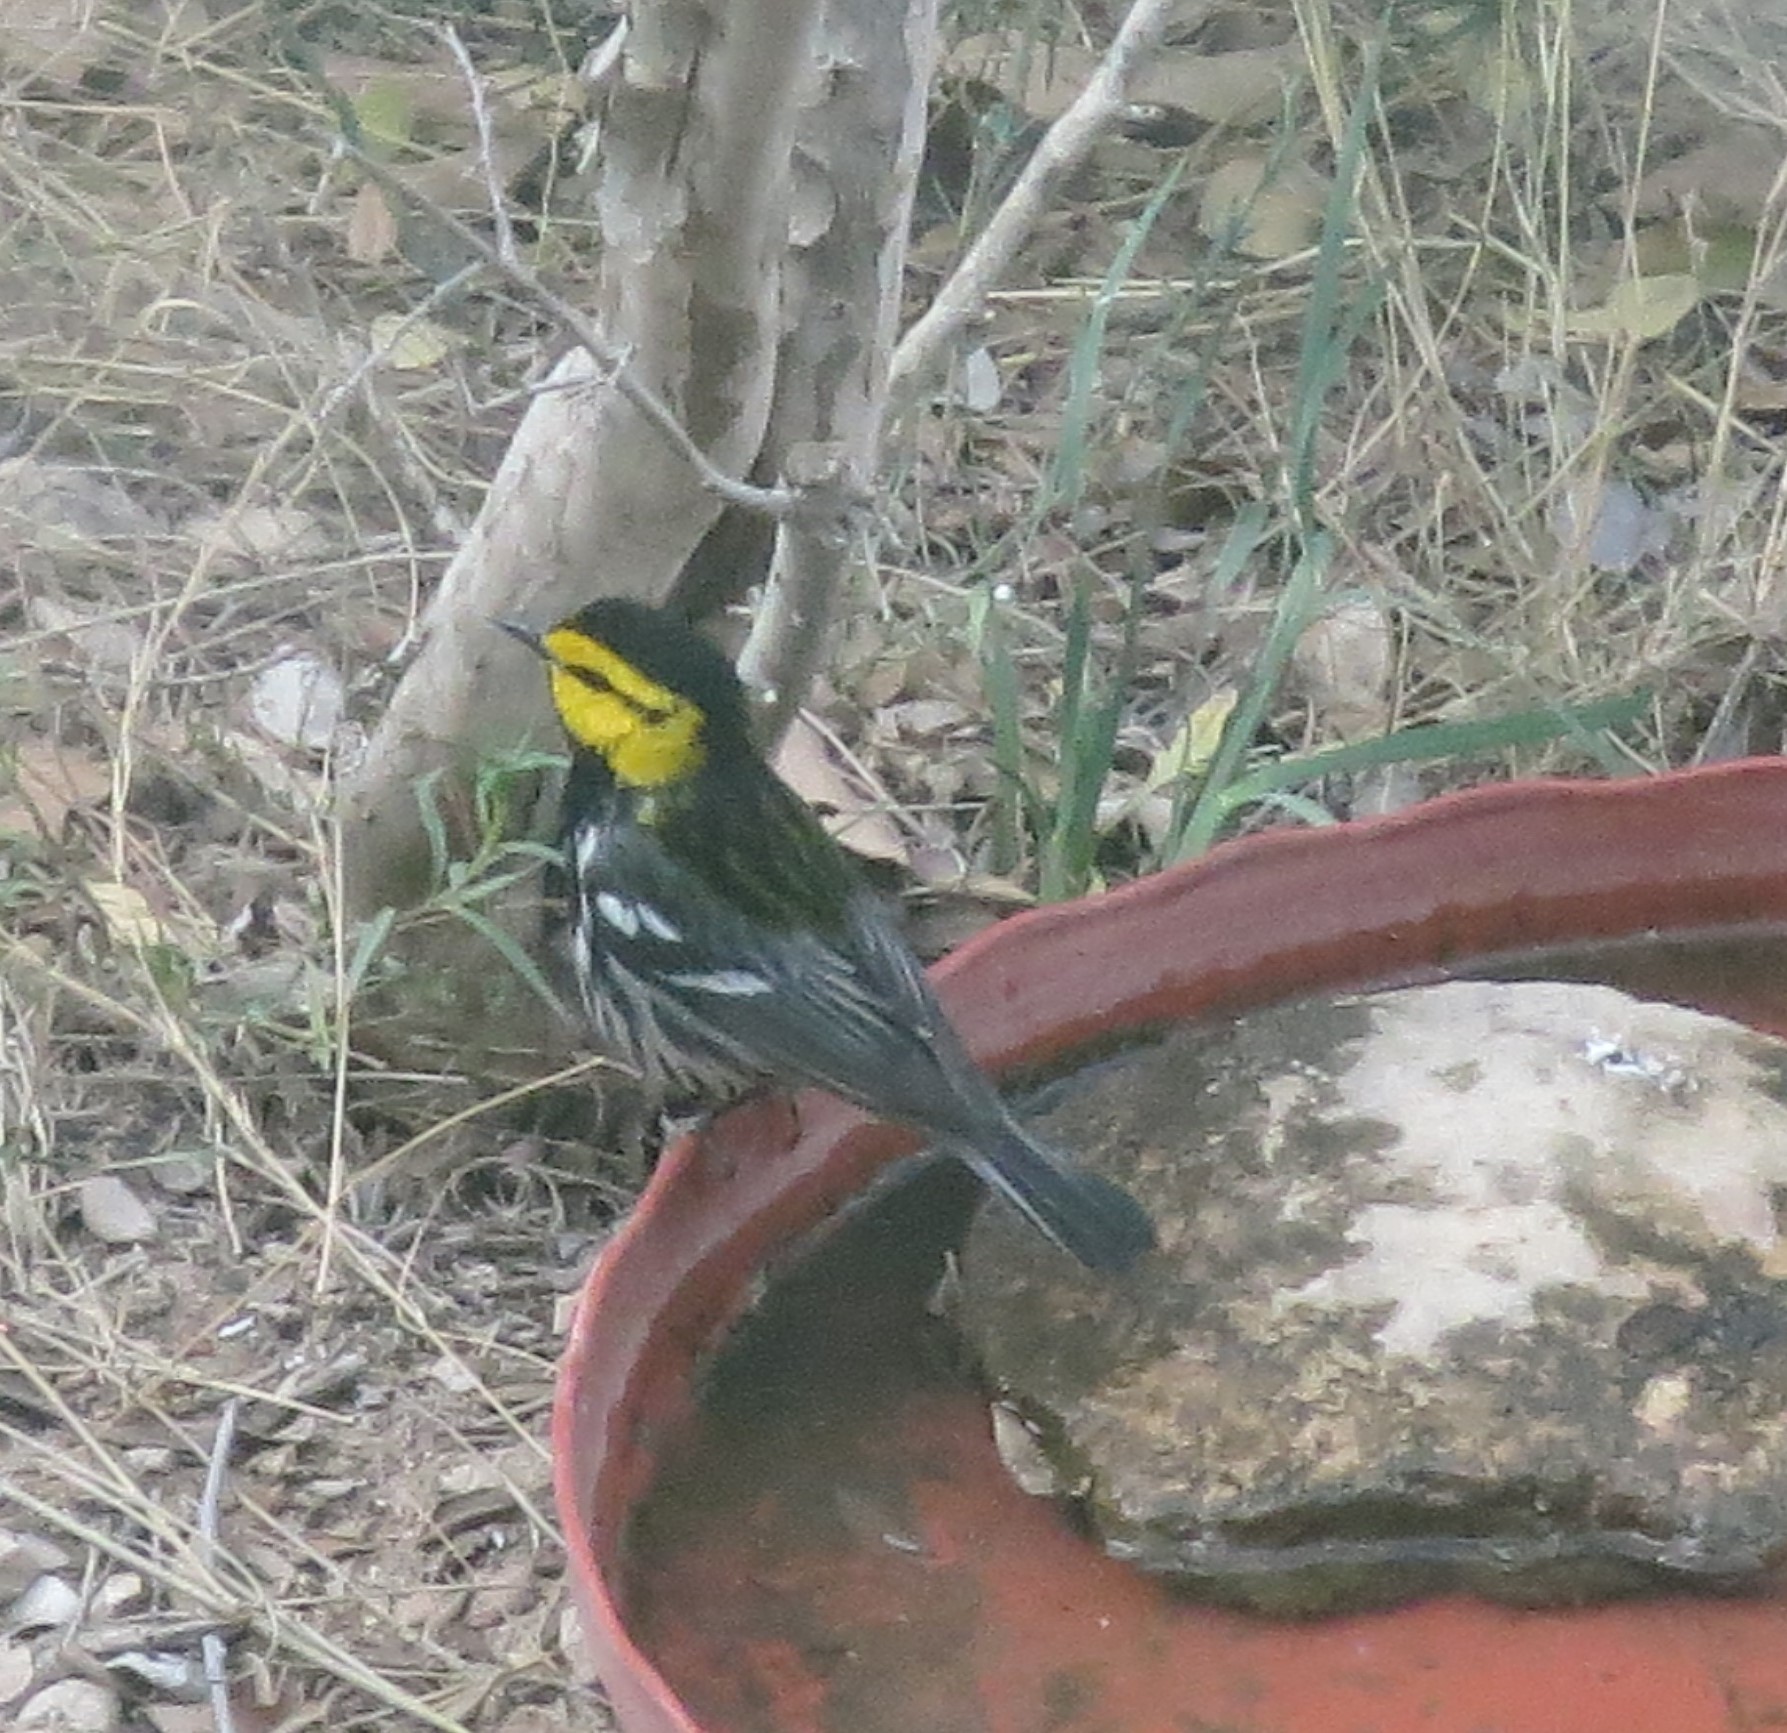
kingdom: Animalia
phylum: Chordata
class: Aves
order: Passeriformes
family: Parulidae
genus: Setophaga
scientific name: Setophaga chrysoparia
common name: Golden-cheeked warbler
